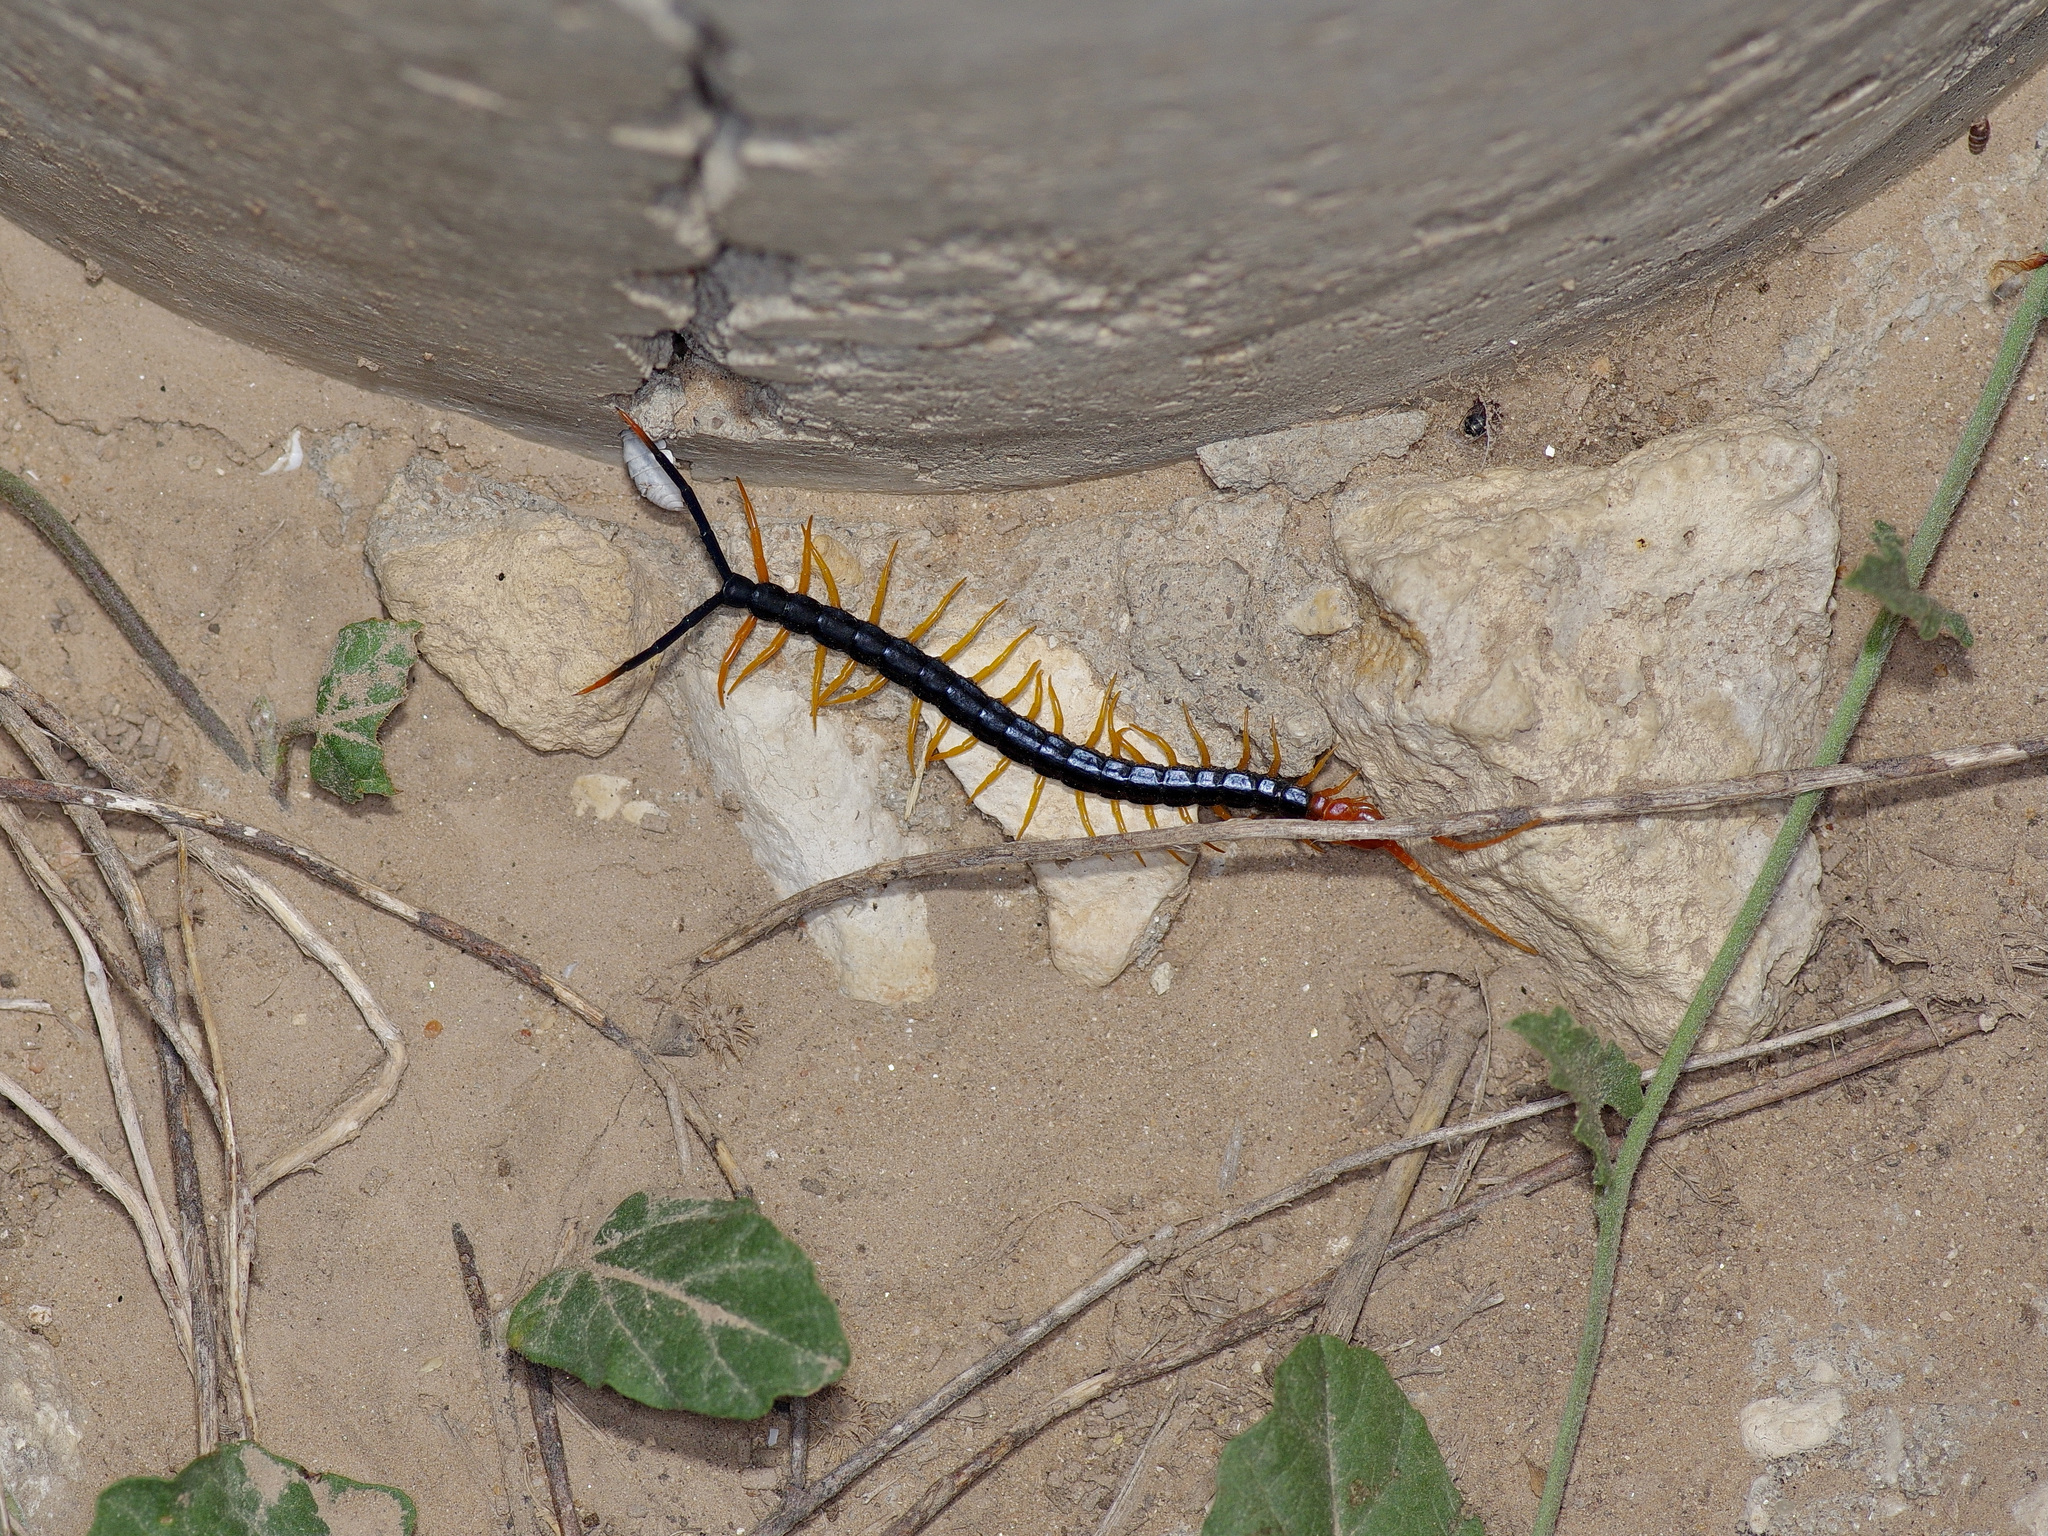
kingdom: Animalia
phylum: Arthropoda
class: Chilopoda
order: Scolopendromorpha
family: Scolopendridae
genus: Scolopendra
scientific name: Scolopendra heros
